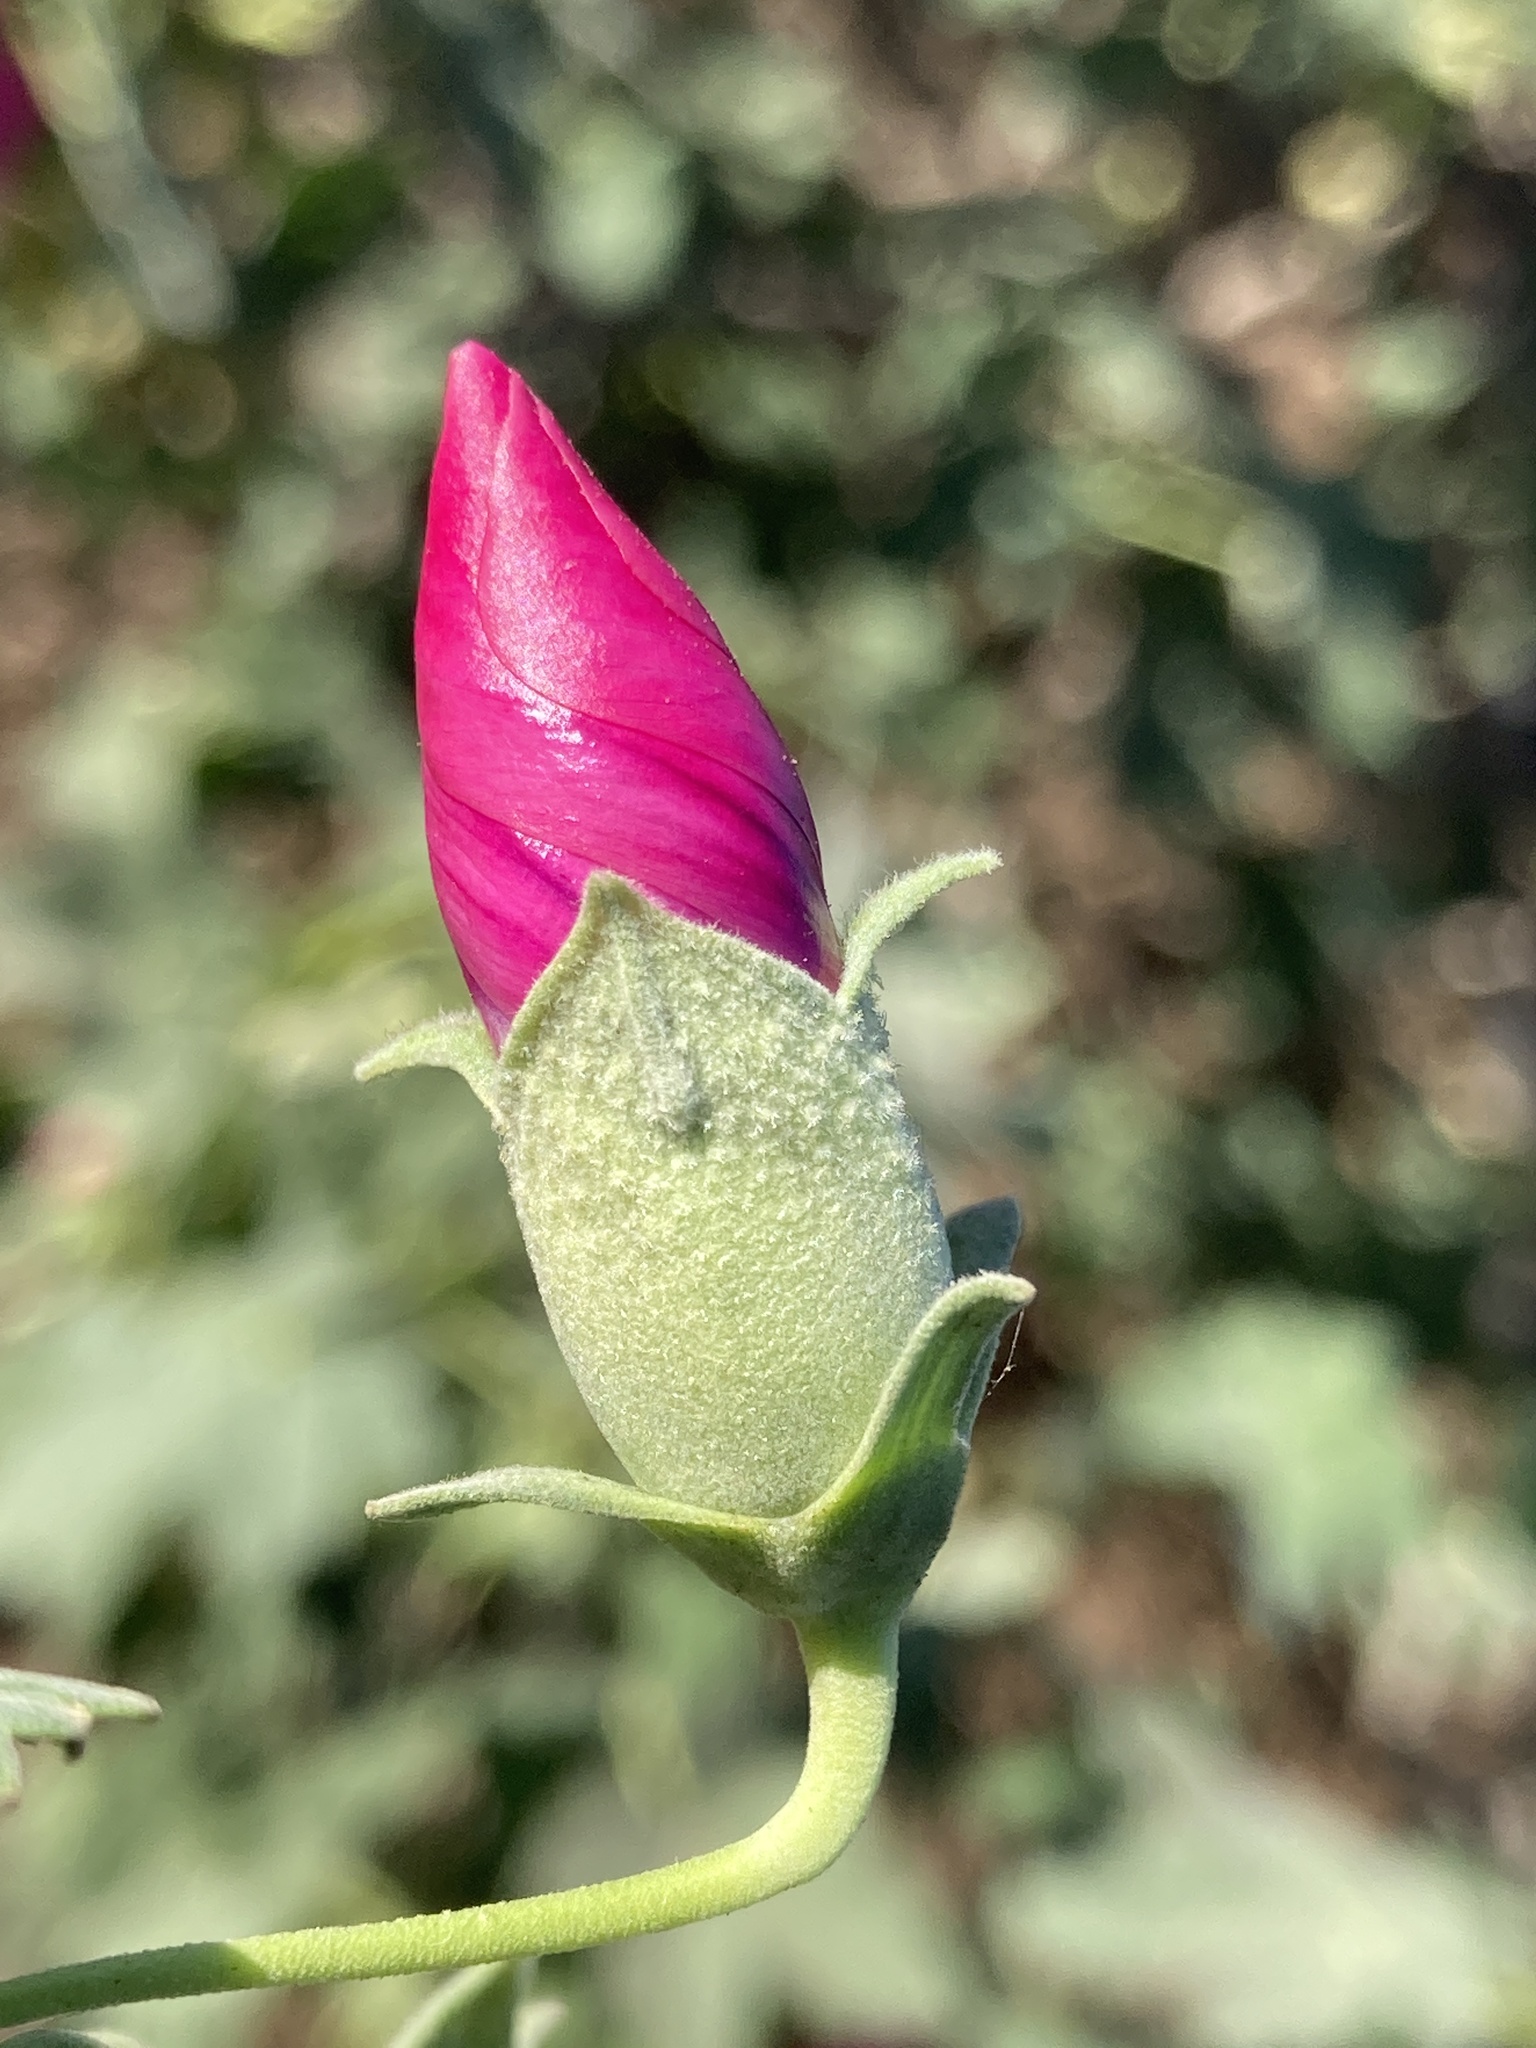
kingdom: Plantae
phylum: Tracheophyta
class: Magnoliopsida
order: Malvales
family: Malvaceae
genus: Malva
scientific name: Malva assurgentiflora
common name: Island mallow
